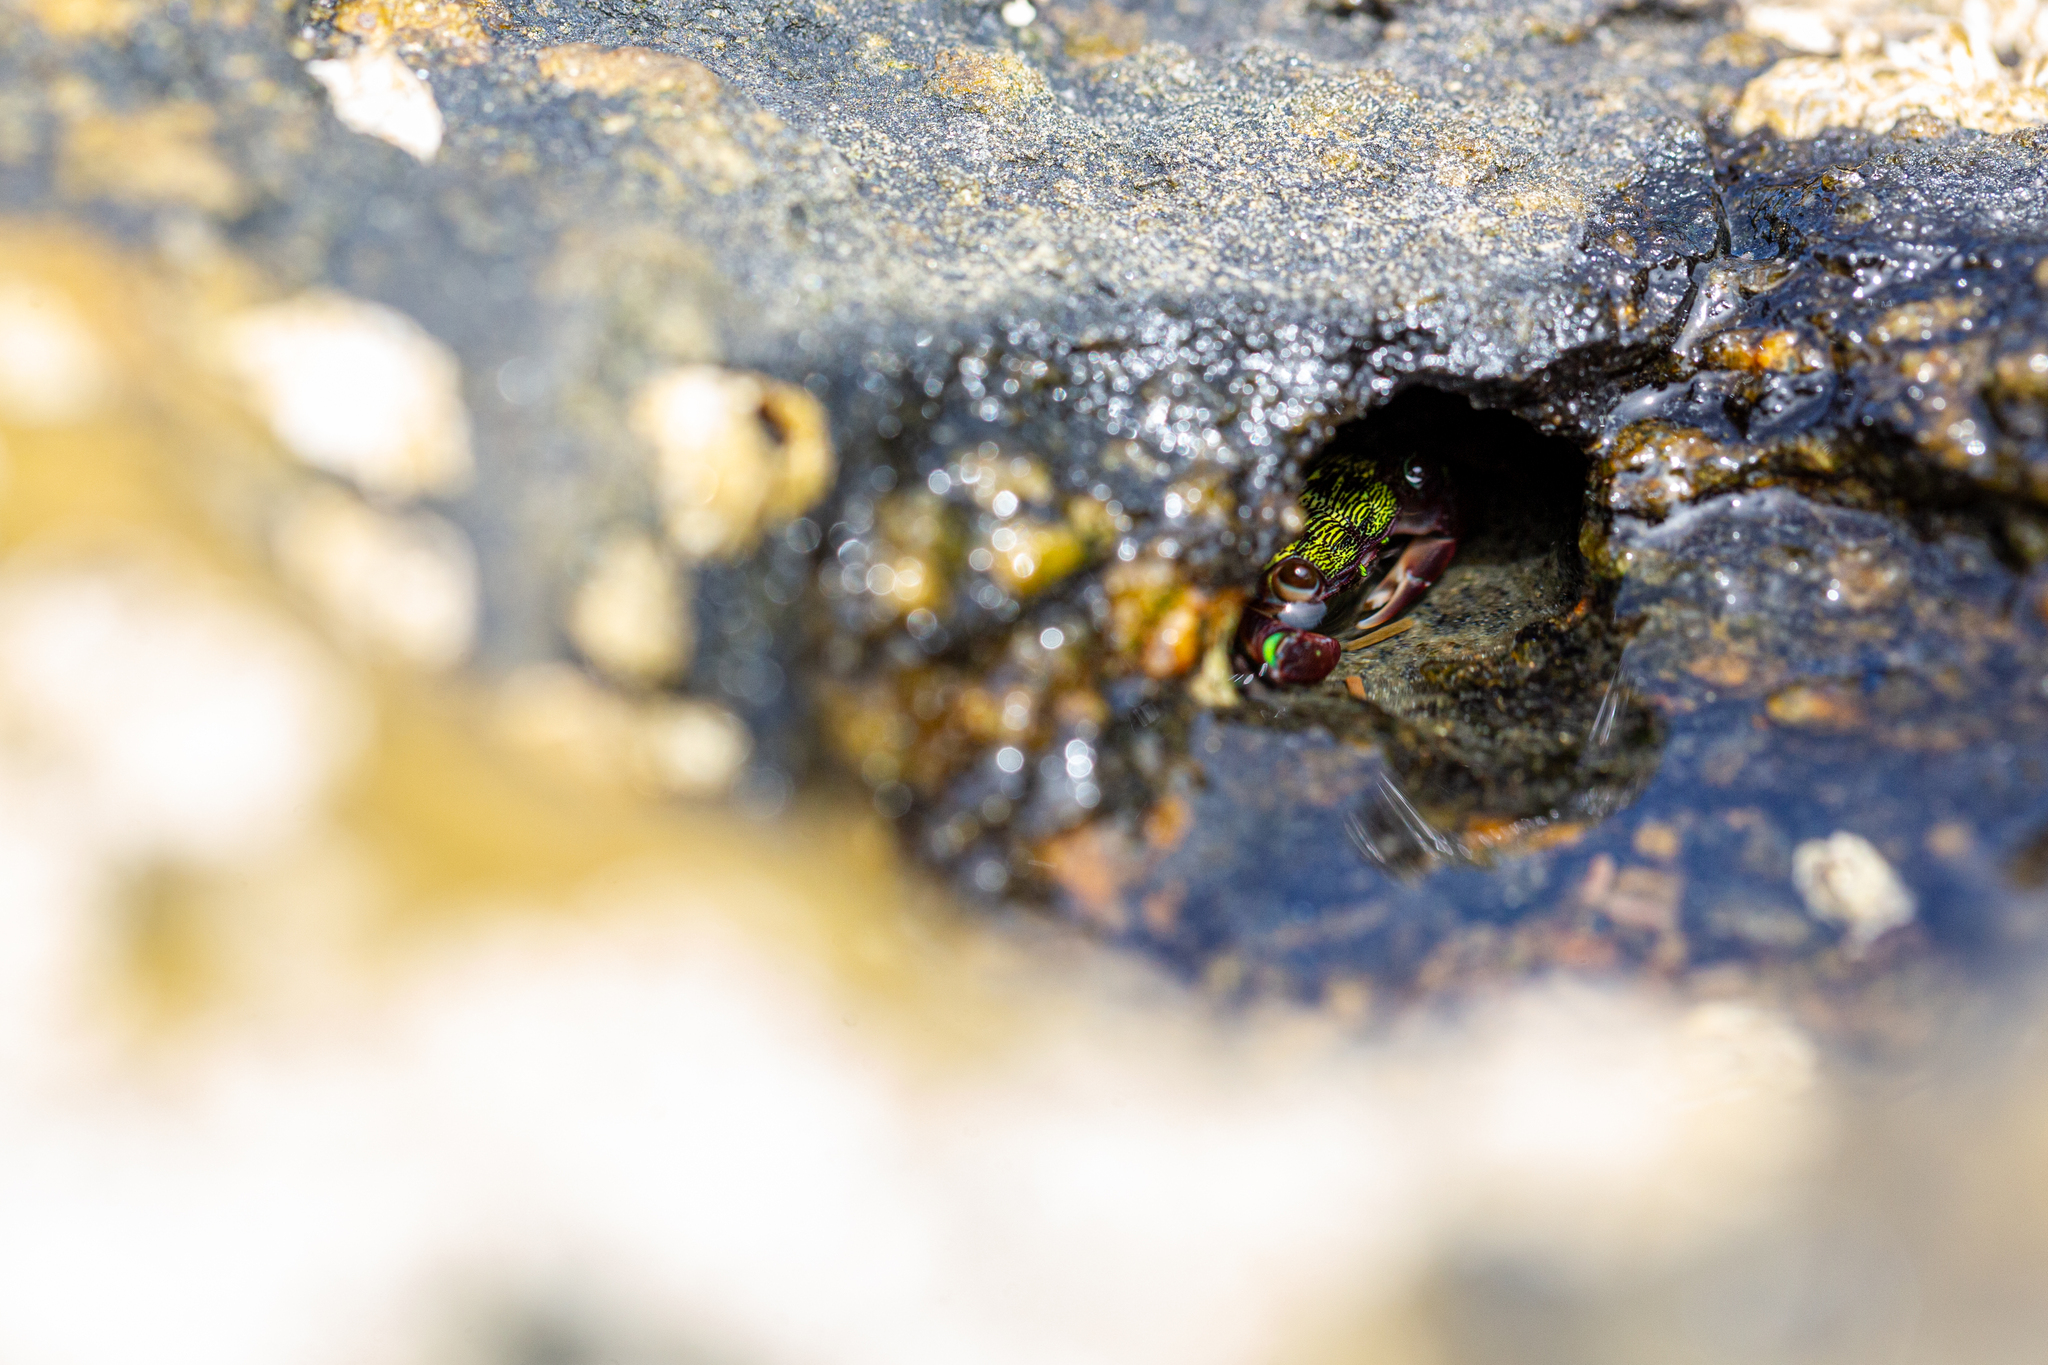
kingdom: Animalia
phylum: Arthropoda
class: Malacostraca
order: Decapoda
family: Grapsidae
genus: Pachygrapsus
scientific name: Pachygrapsus transversus
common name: Mottled shore crab
